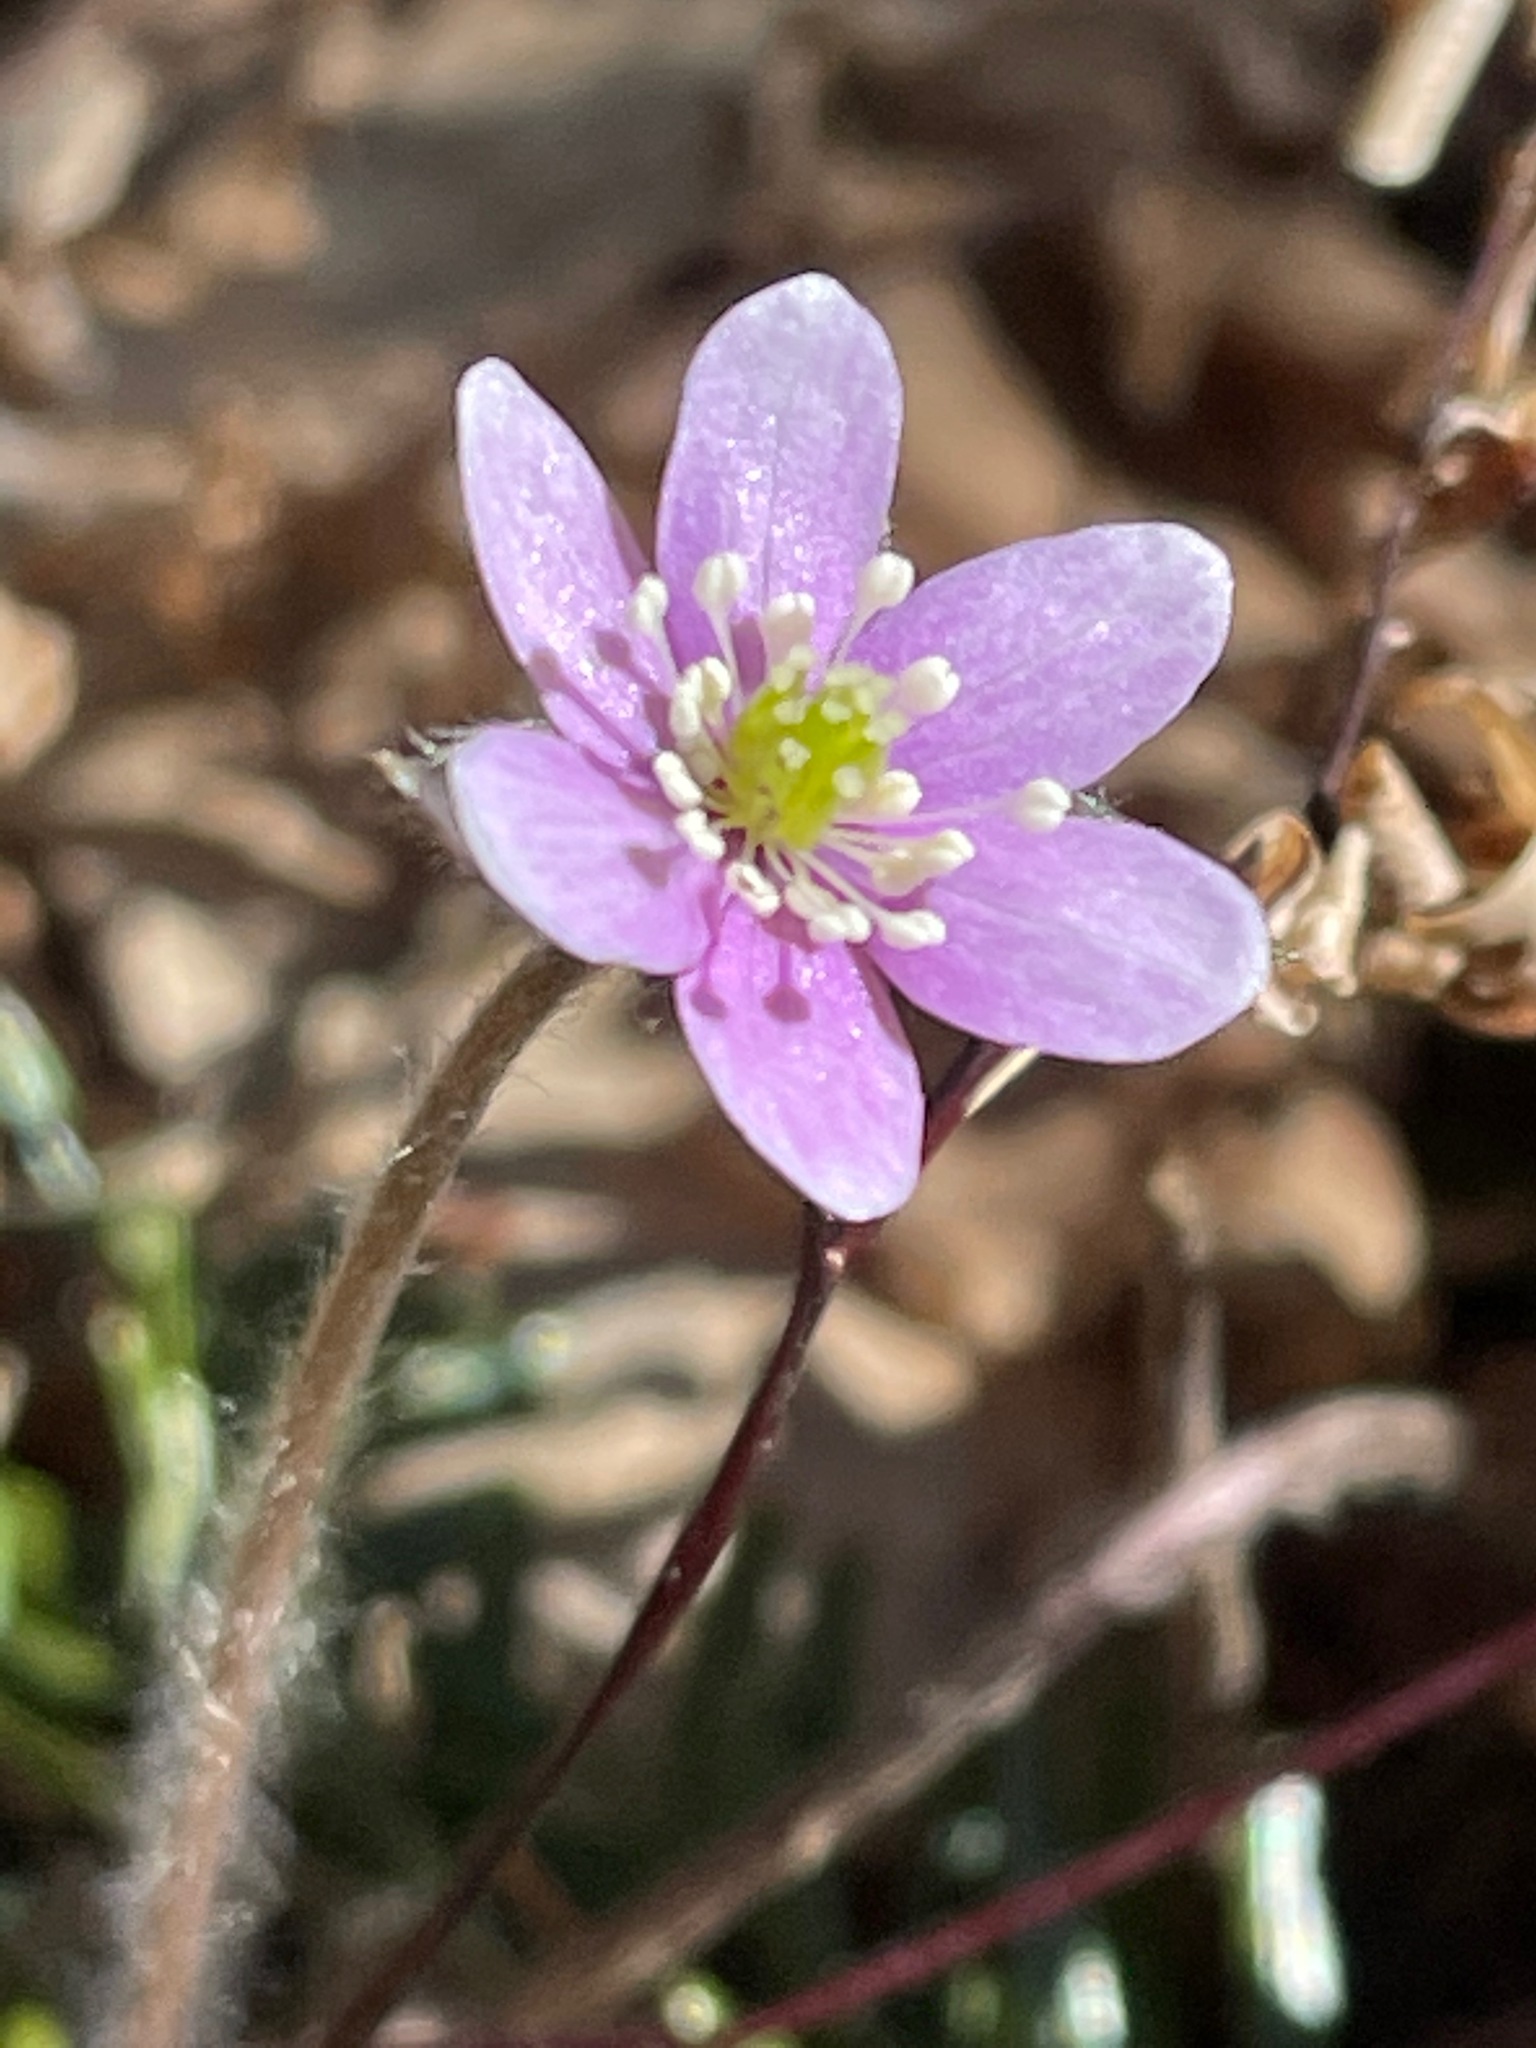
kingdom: Plantae
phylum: Tracheophyta
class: Magnoliopsida
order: Ranunculales
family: Ranunculaceae
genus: Hepatica
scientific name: Hepatica acutiloba
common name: Sharp-lobed hepatica
